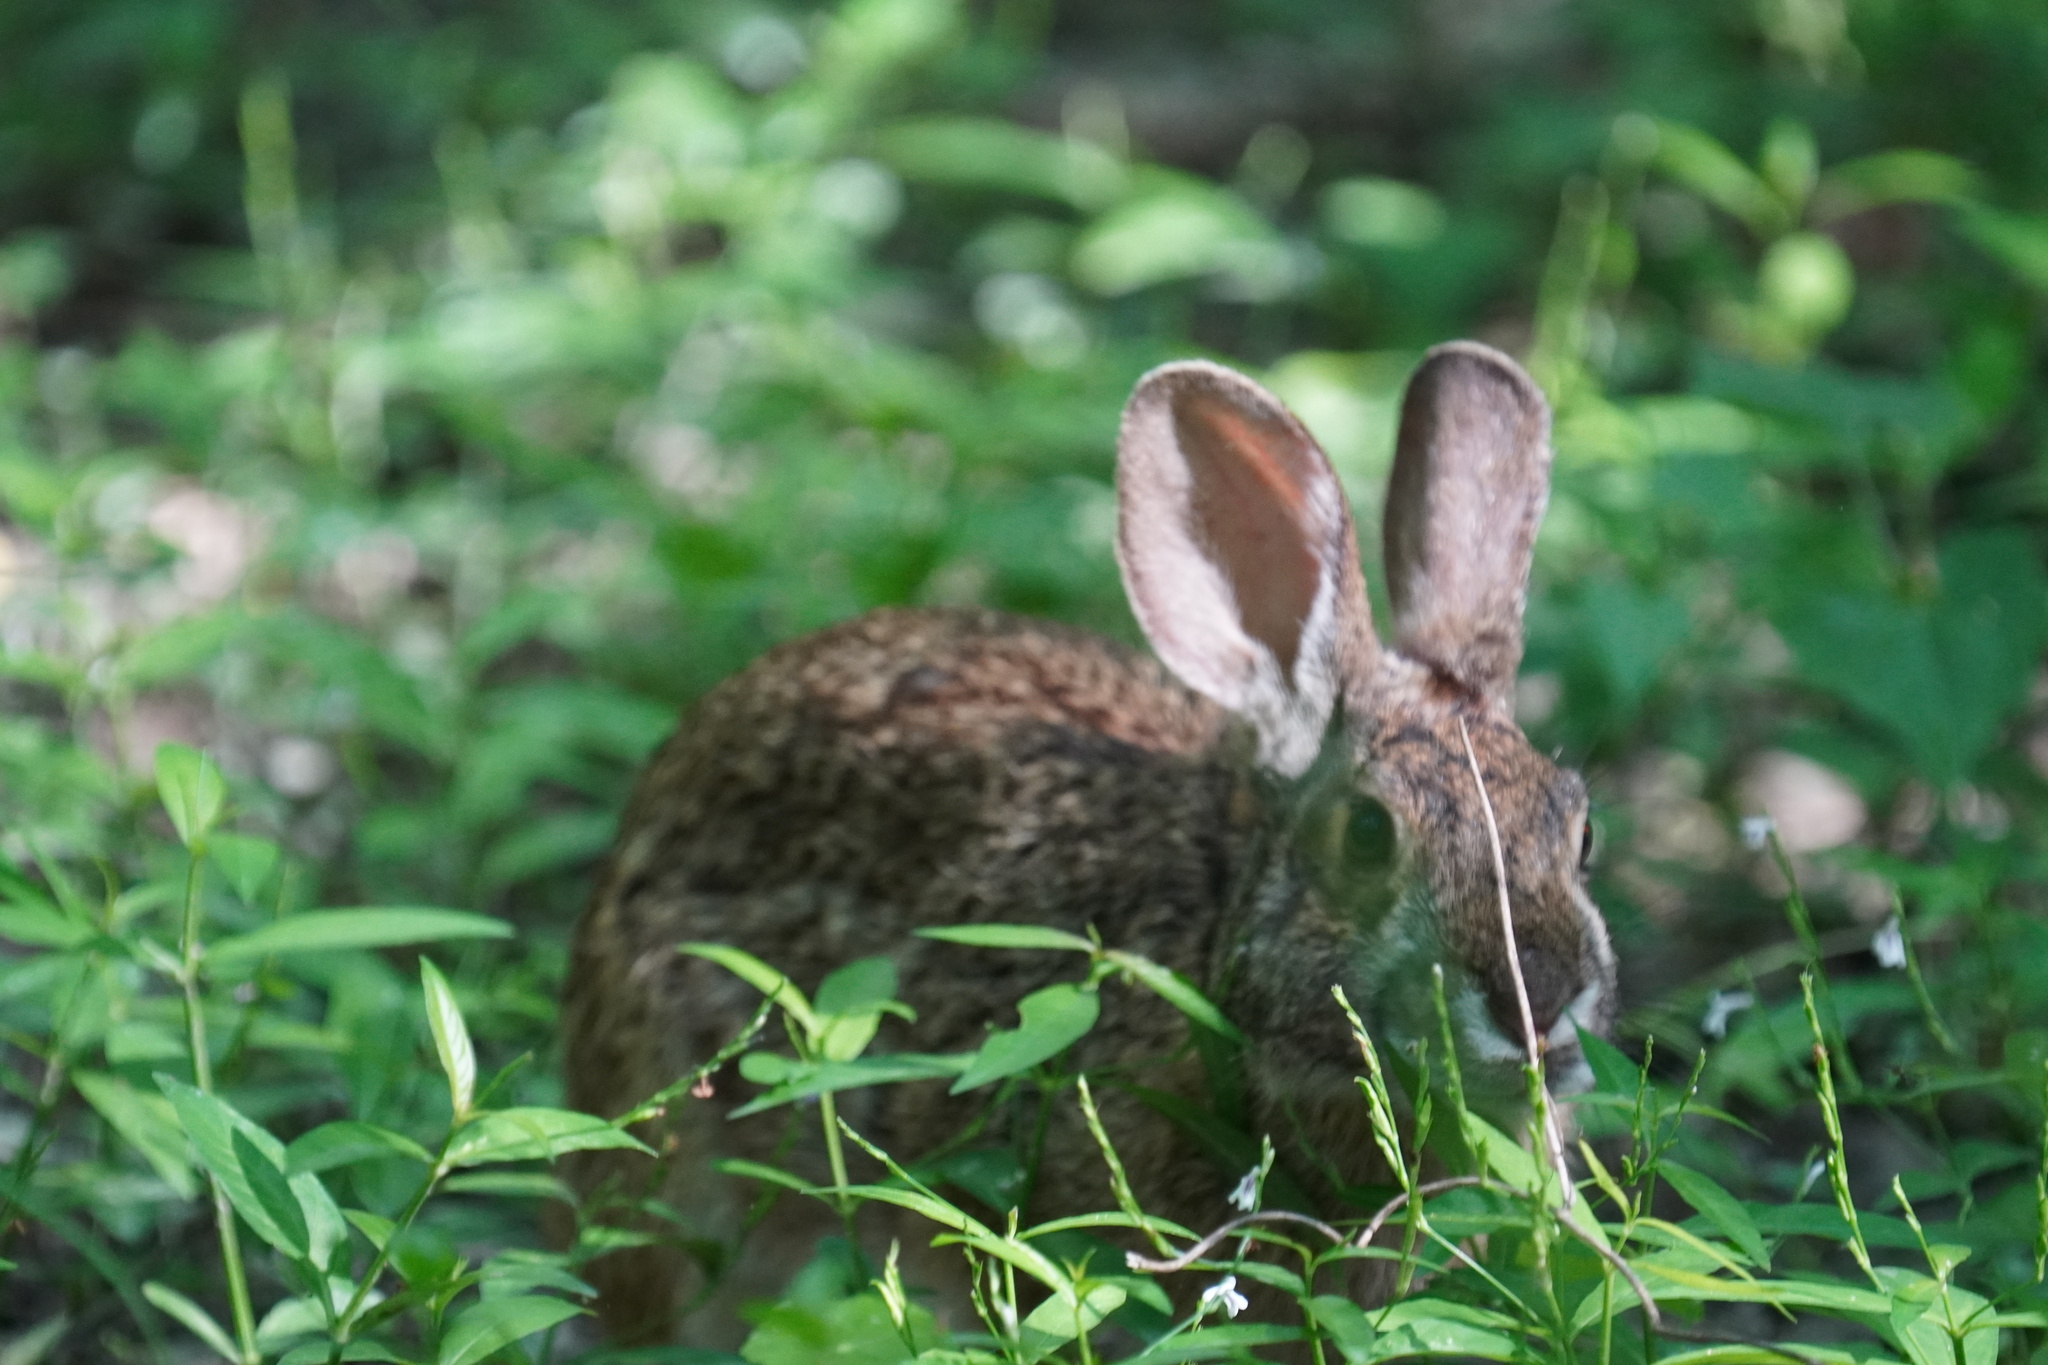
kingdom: Animalia
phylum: Chordata
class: Mammalia
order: Lagomorpha
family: Leporidae
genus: Sylvilagus
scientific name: Sylvilagus aquaticus
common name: Swamp rabbit
